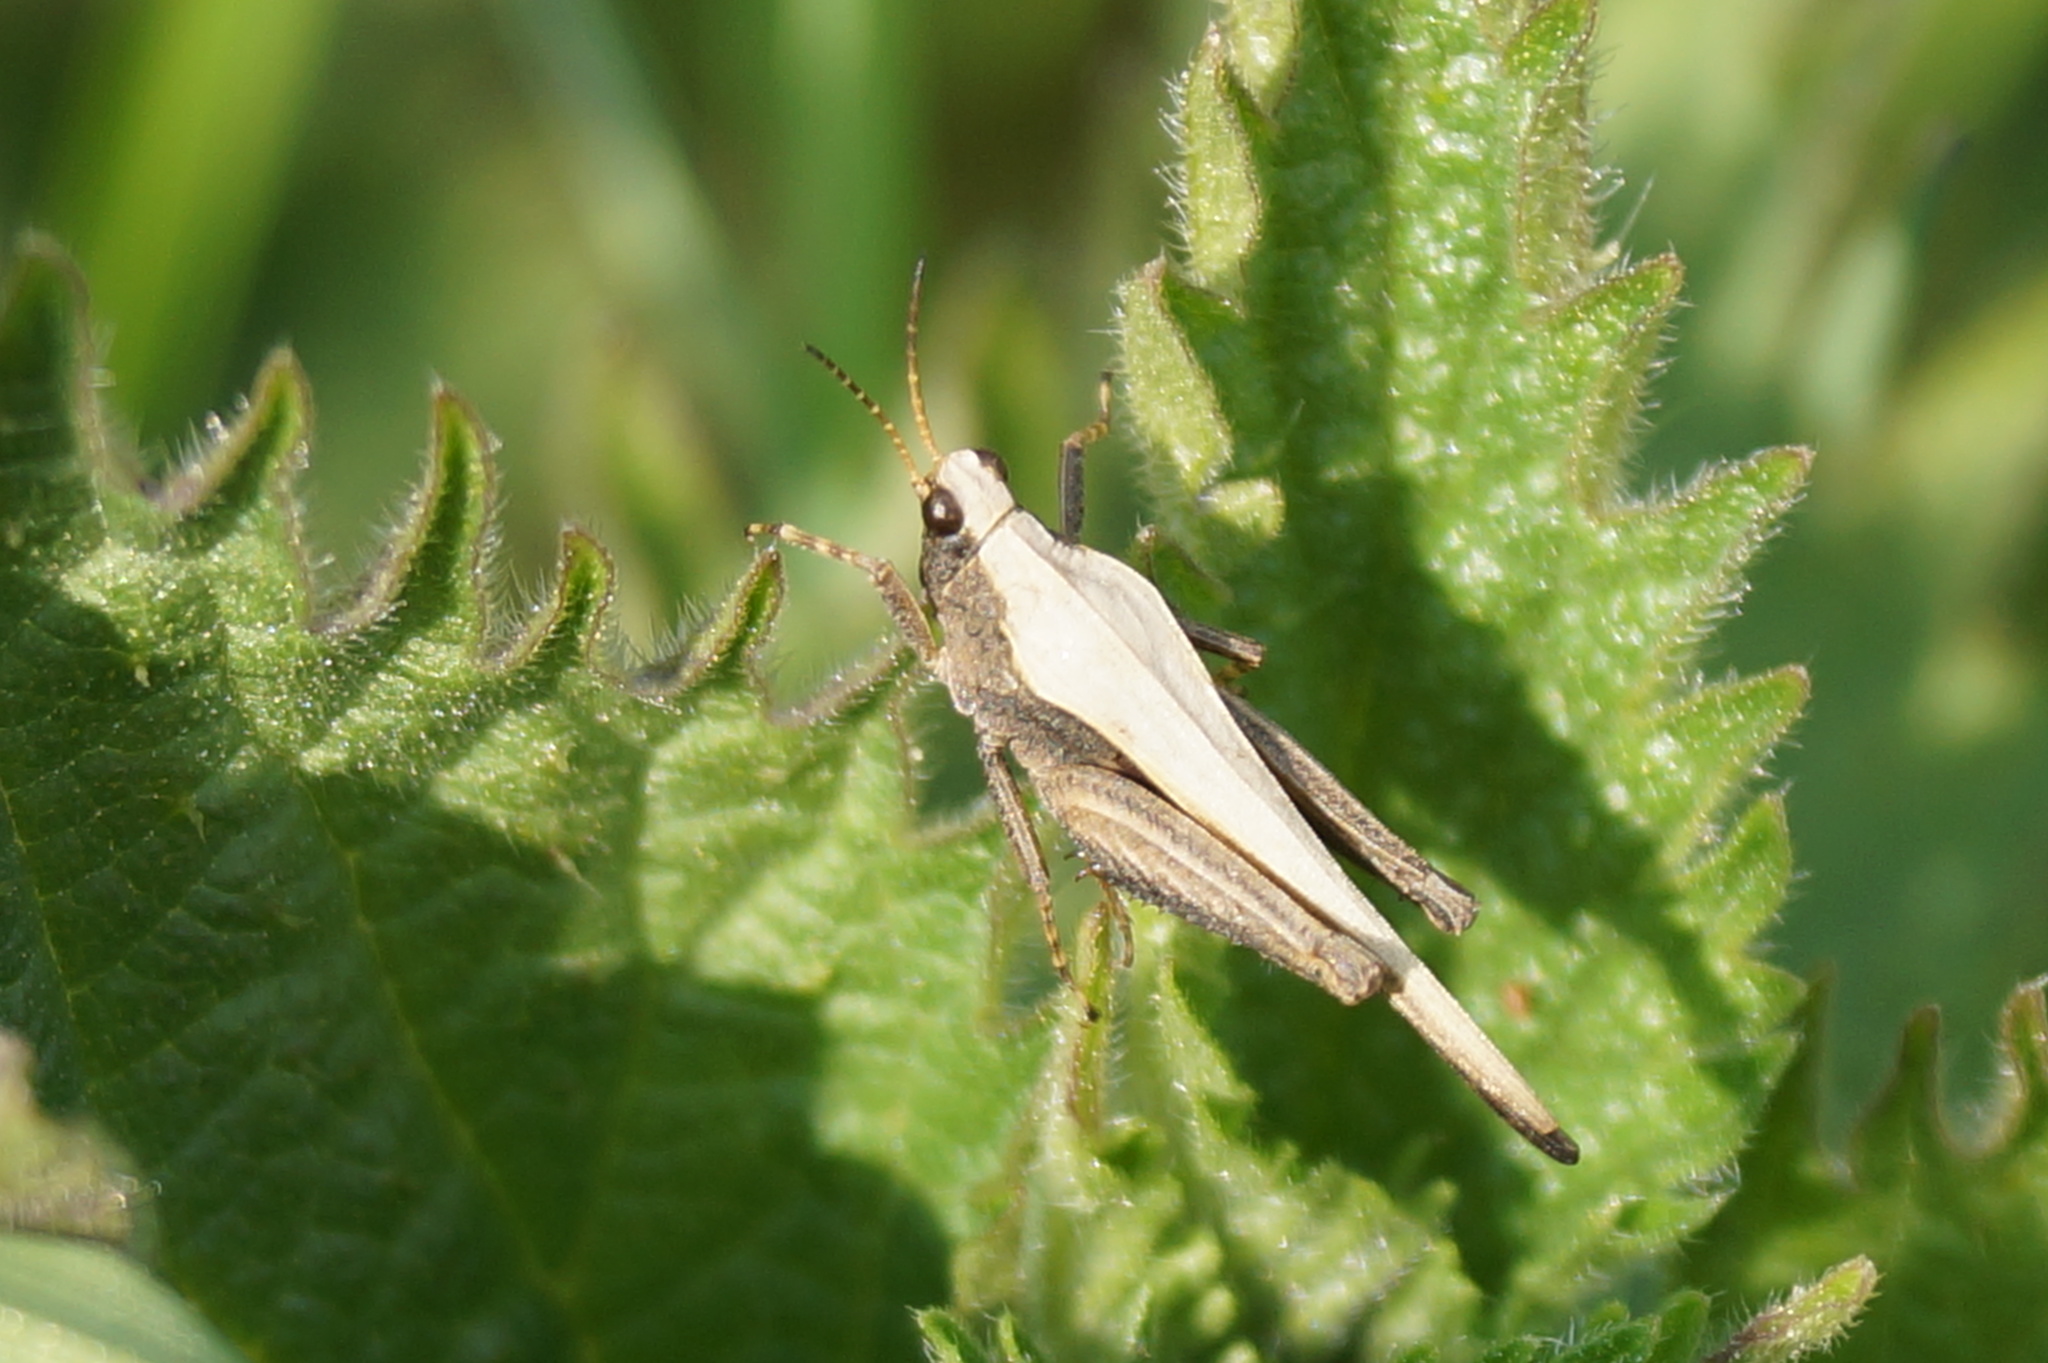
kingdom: Animalia
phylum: Arthropoda
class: Insecta
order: Orthoptera
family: Tetrigidae
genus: Tetrix
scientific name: Tetrix subulata
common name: Slender ground-hopper
